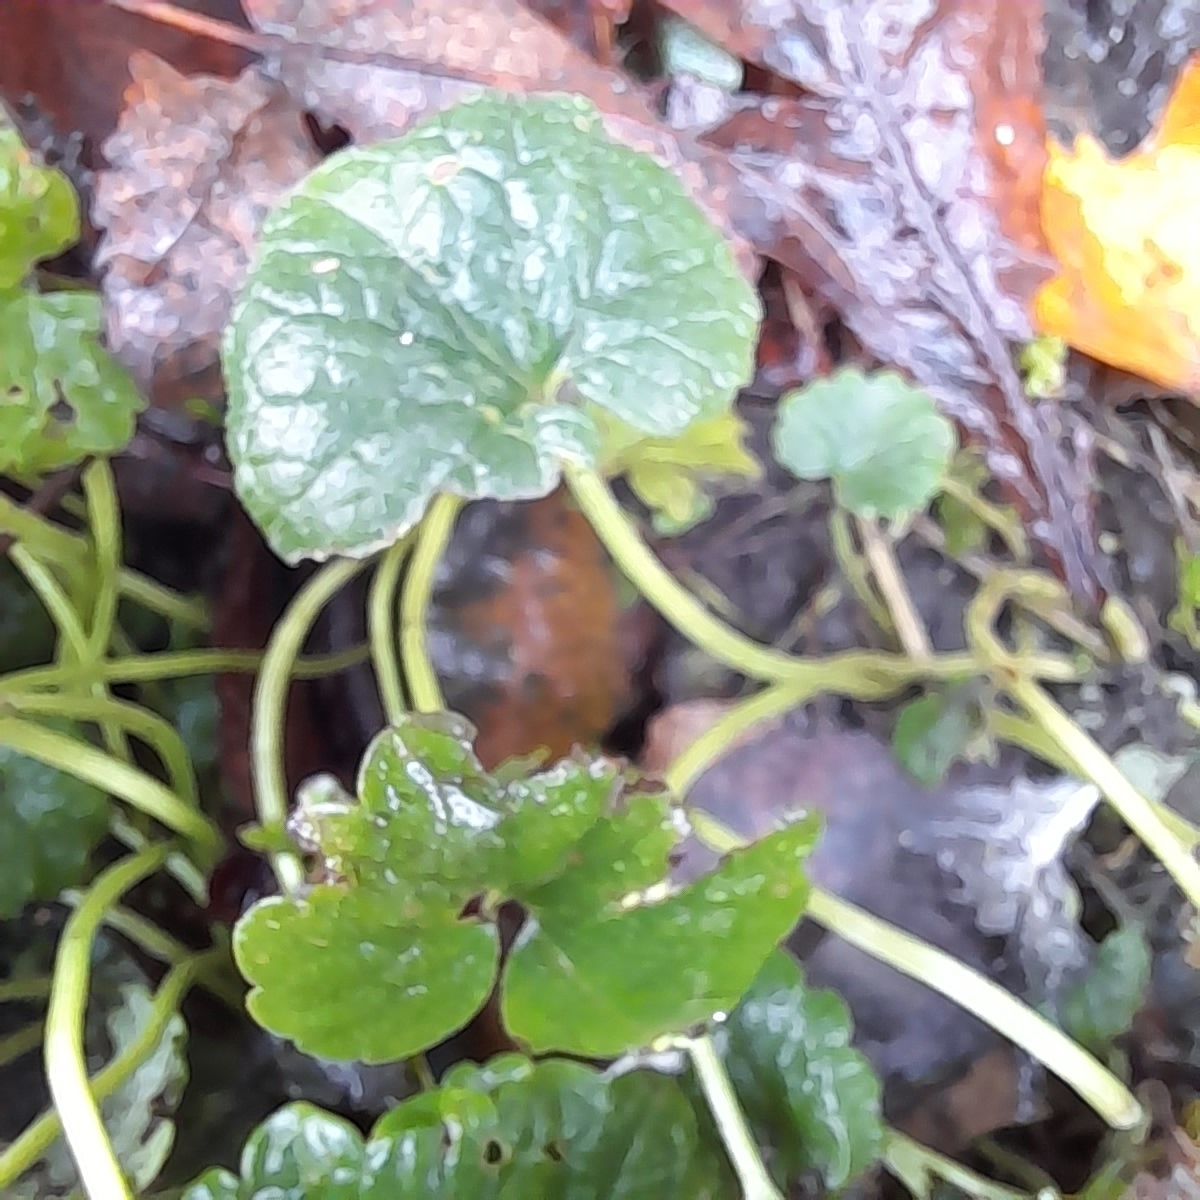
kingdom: Plantae
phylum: Tracheophyta
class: Magnoliopsida
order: Lamiales
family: Lamiaceae
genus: Glechoma
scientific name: Glechoma hederacea
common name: Ground ivy
